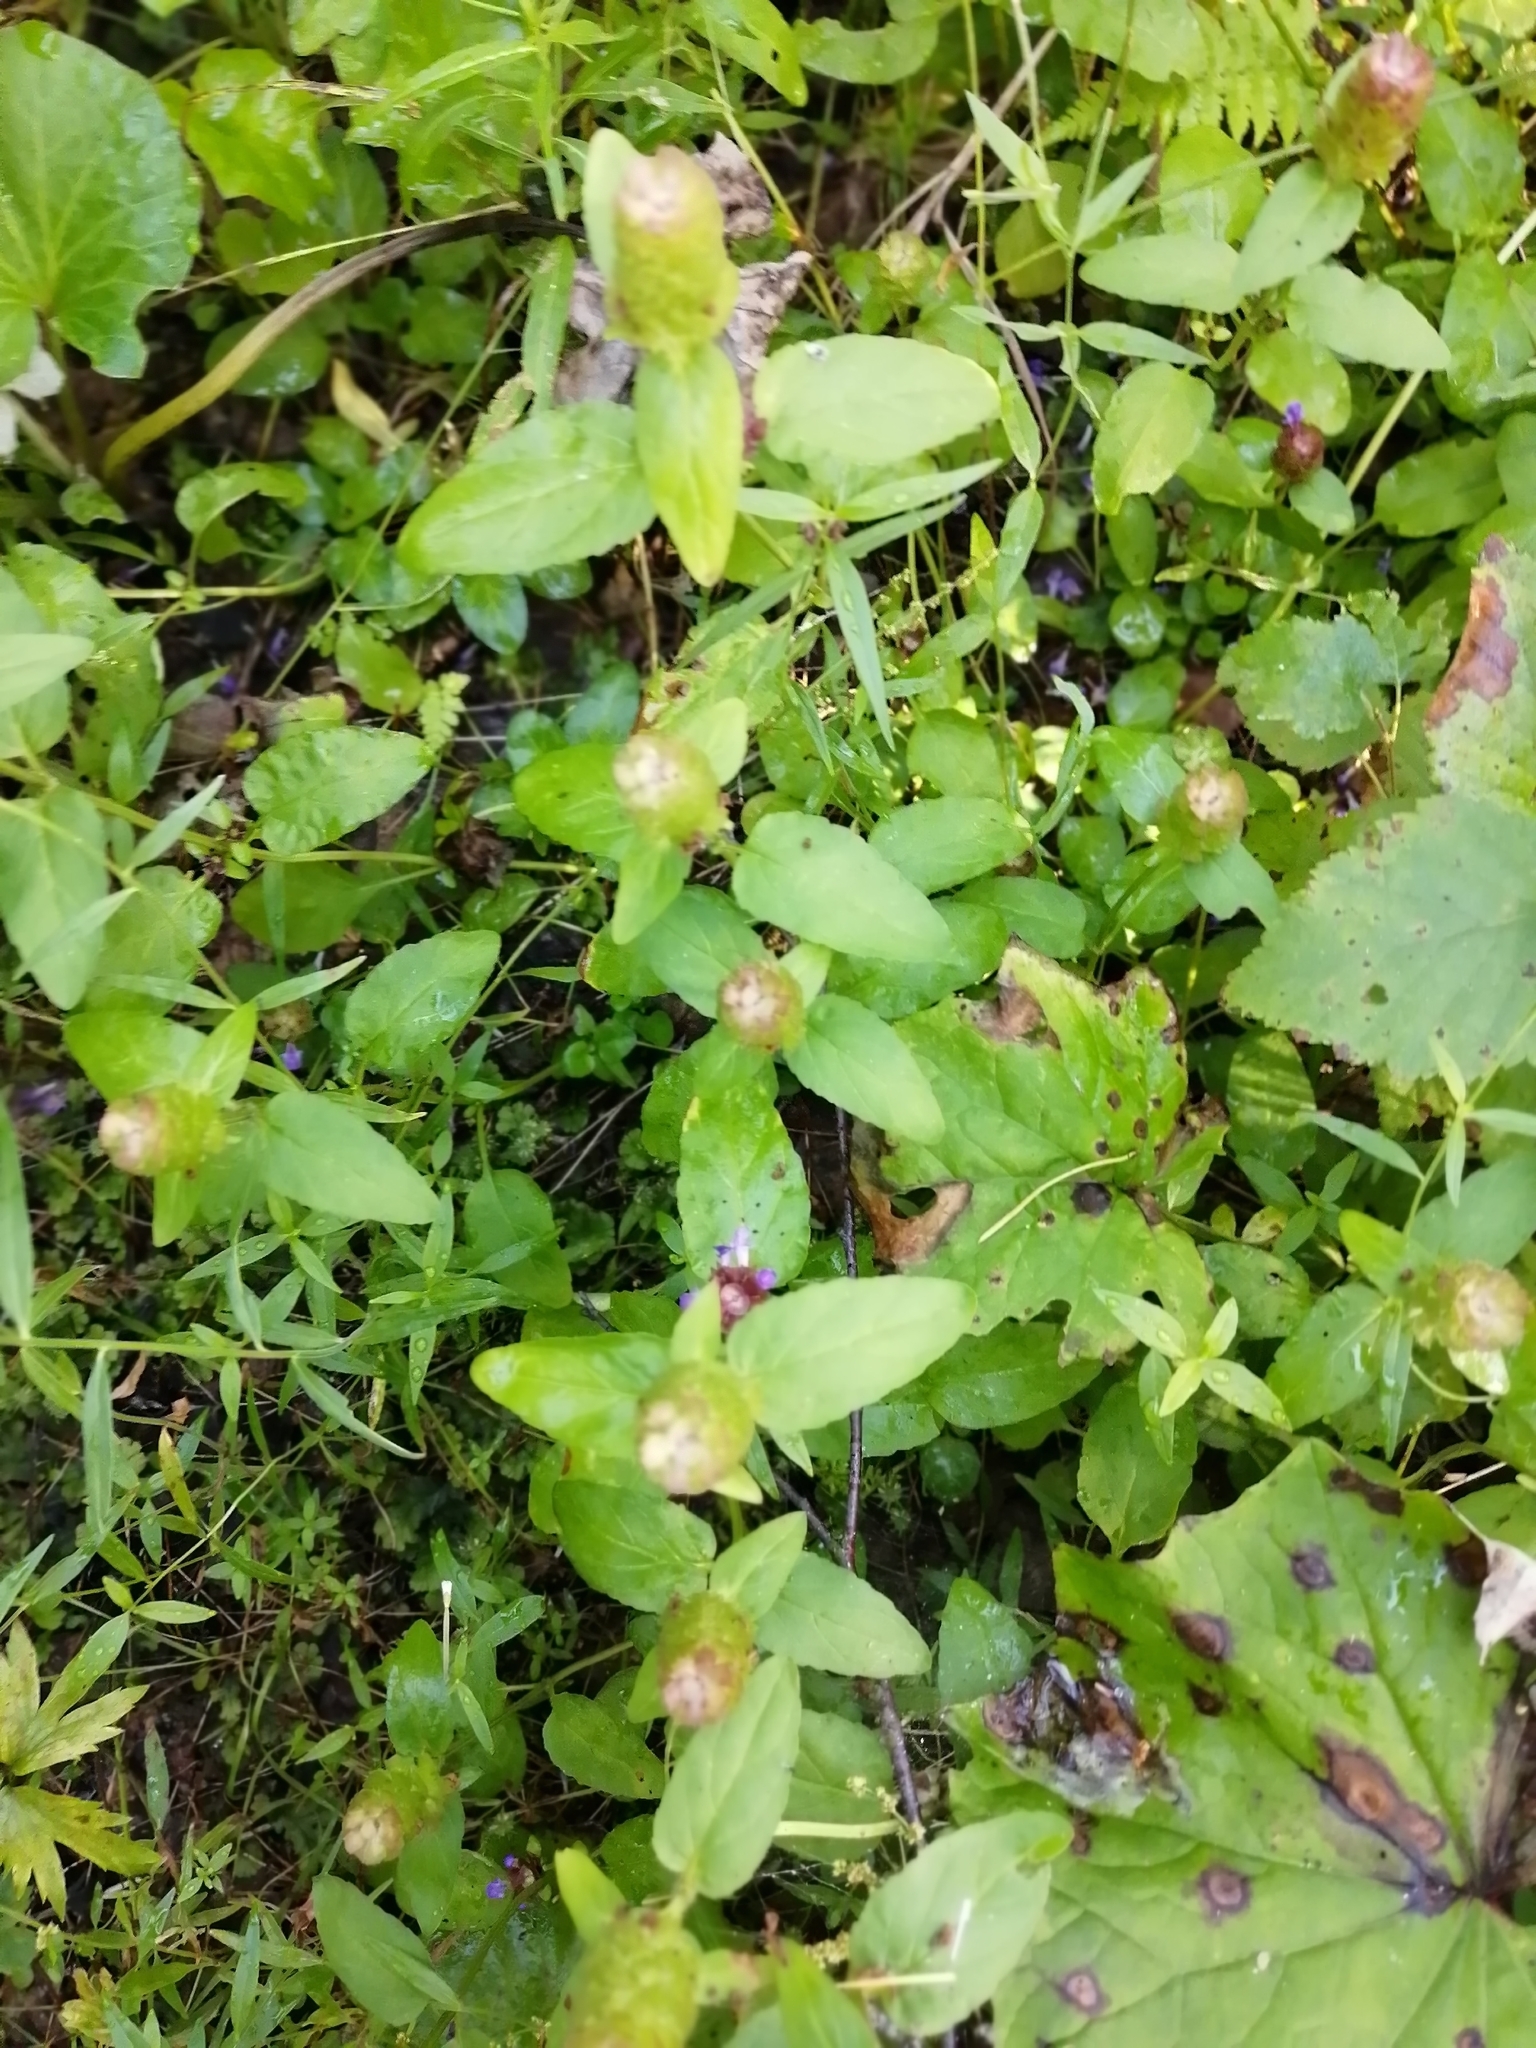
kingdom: Plantae
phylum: Tracheophyta
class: Magnoliopsida
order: Lamiales
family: Lamiaceae
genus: Prunella
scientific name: Prunella vulgaris
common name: Heal-all
